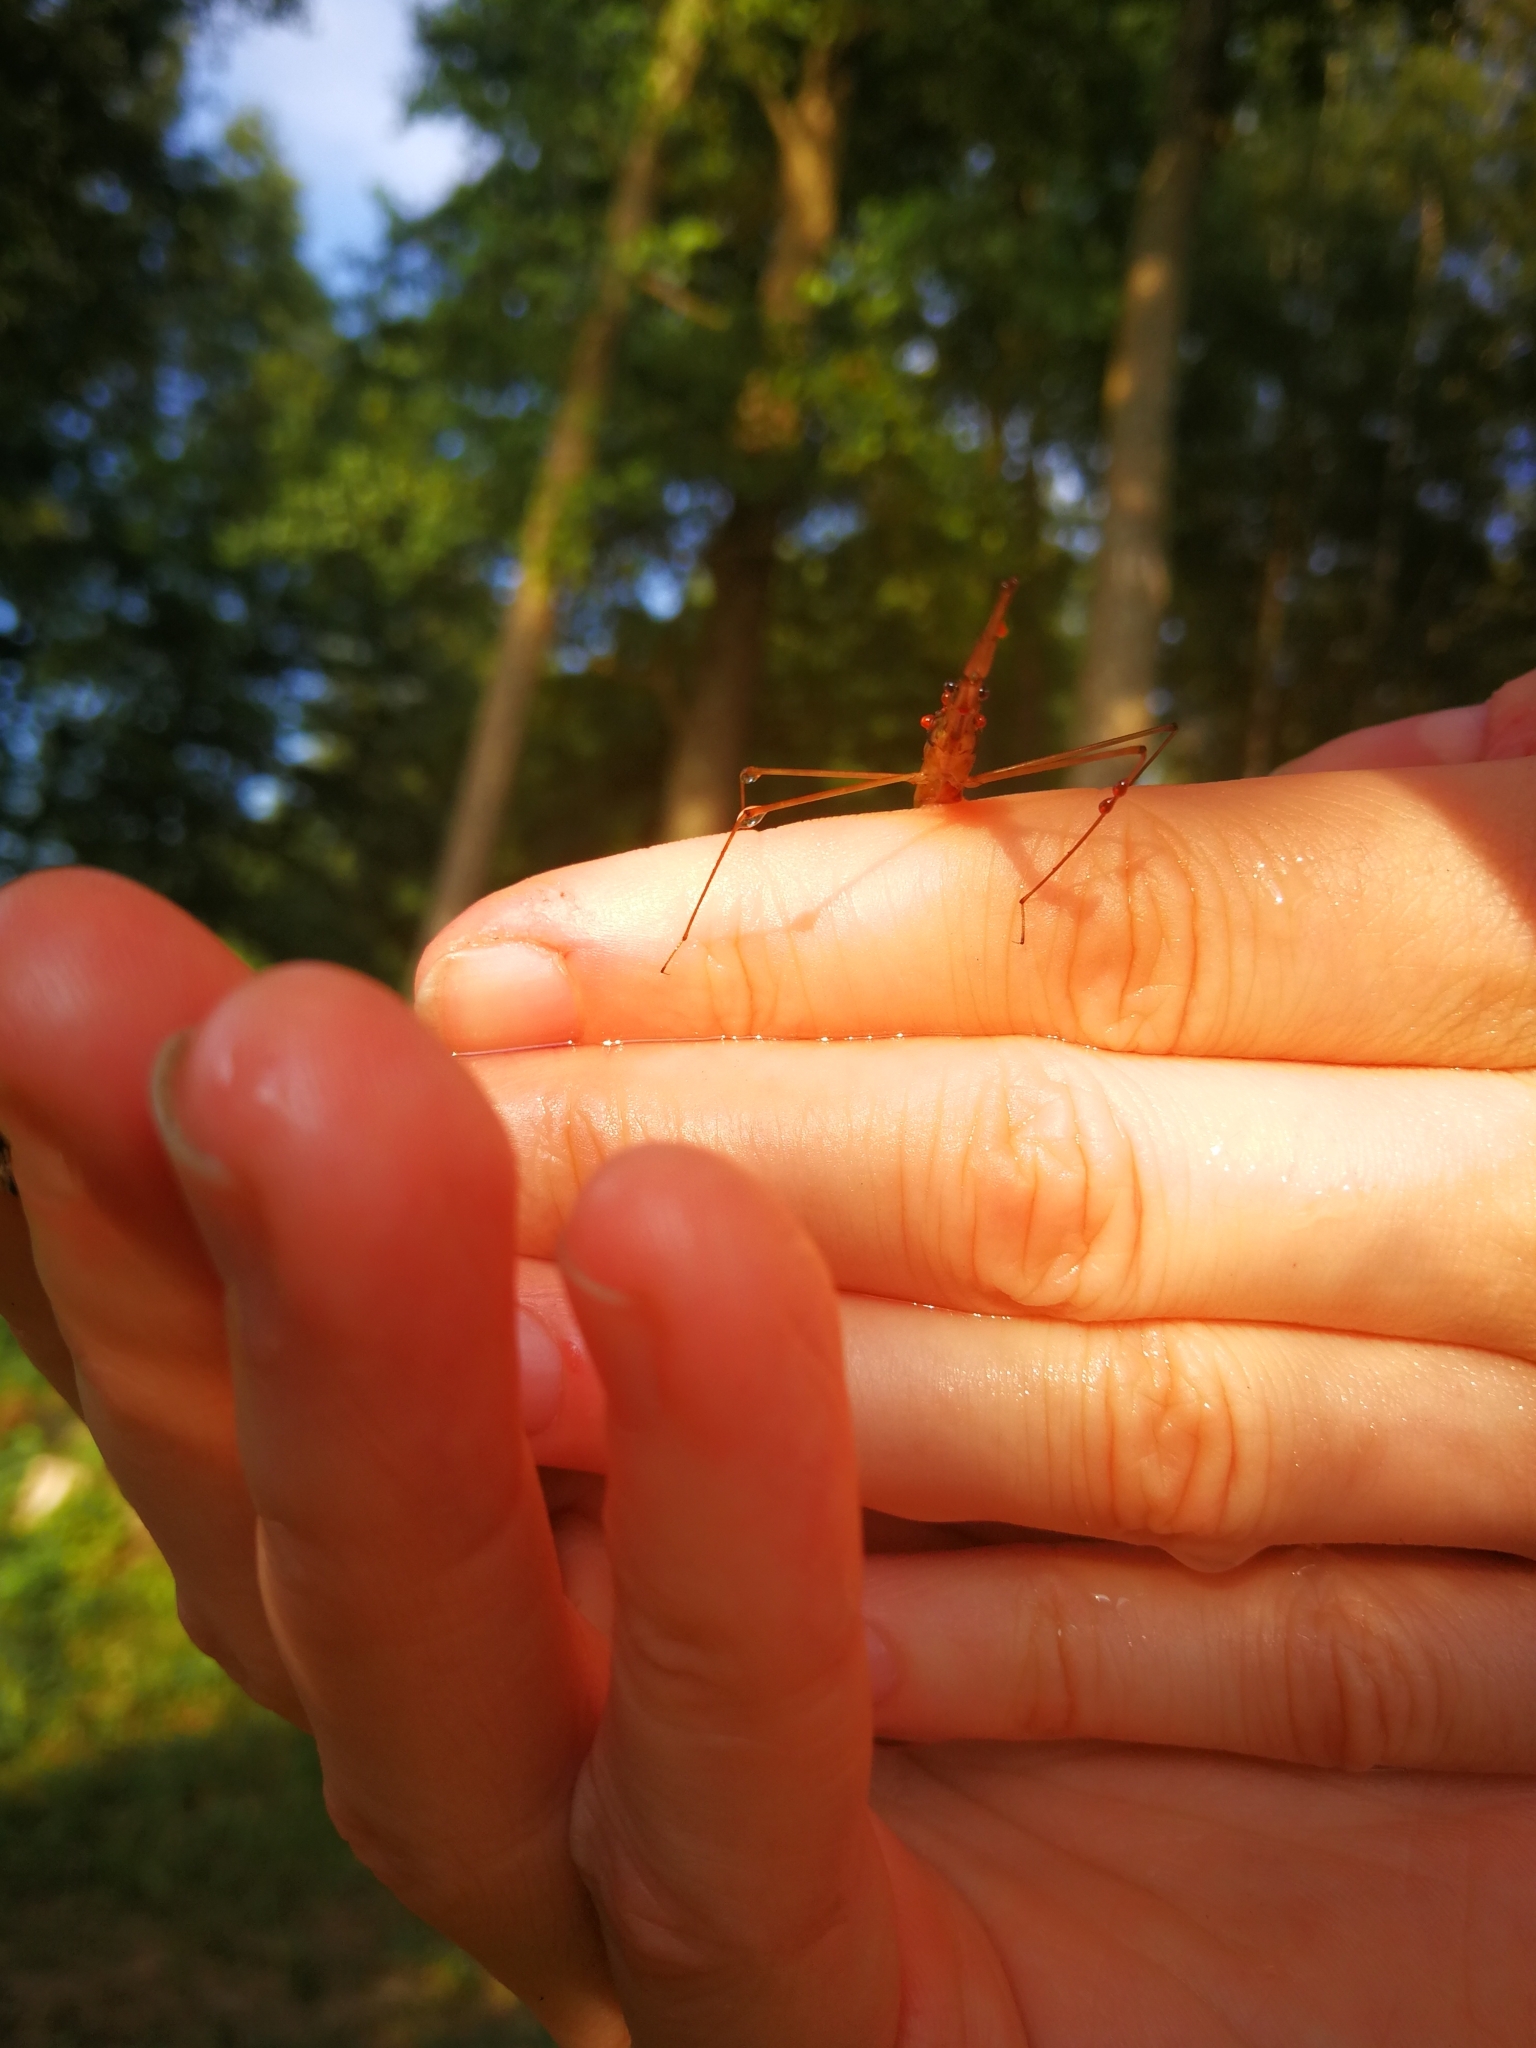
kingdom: Animalia
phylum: Arthropoda
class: Insecta
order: Hemiptera
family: Nepidae
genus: Ranatra
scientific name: Ranatra linearis
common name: Water stick insect
